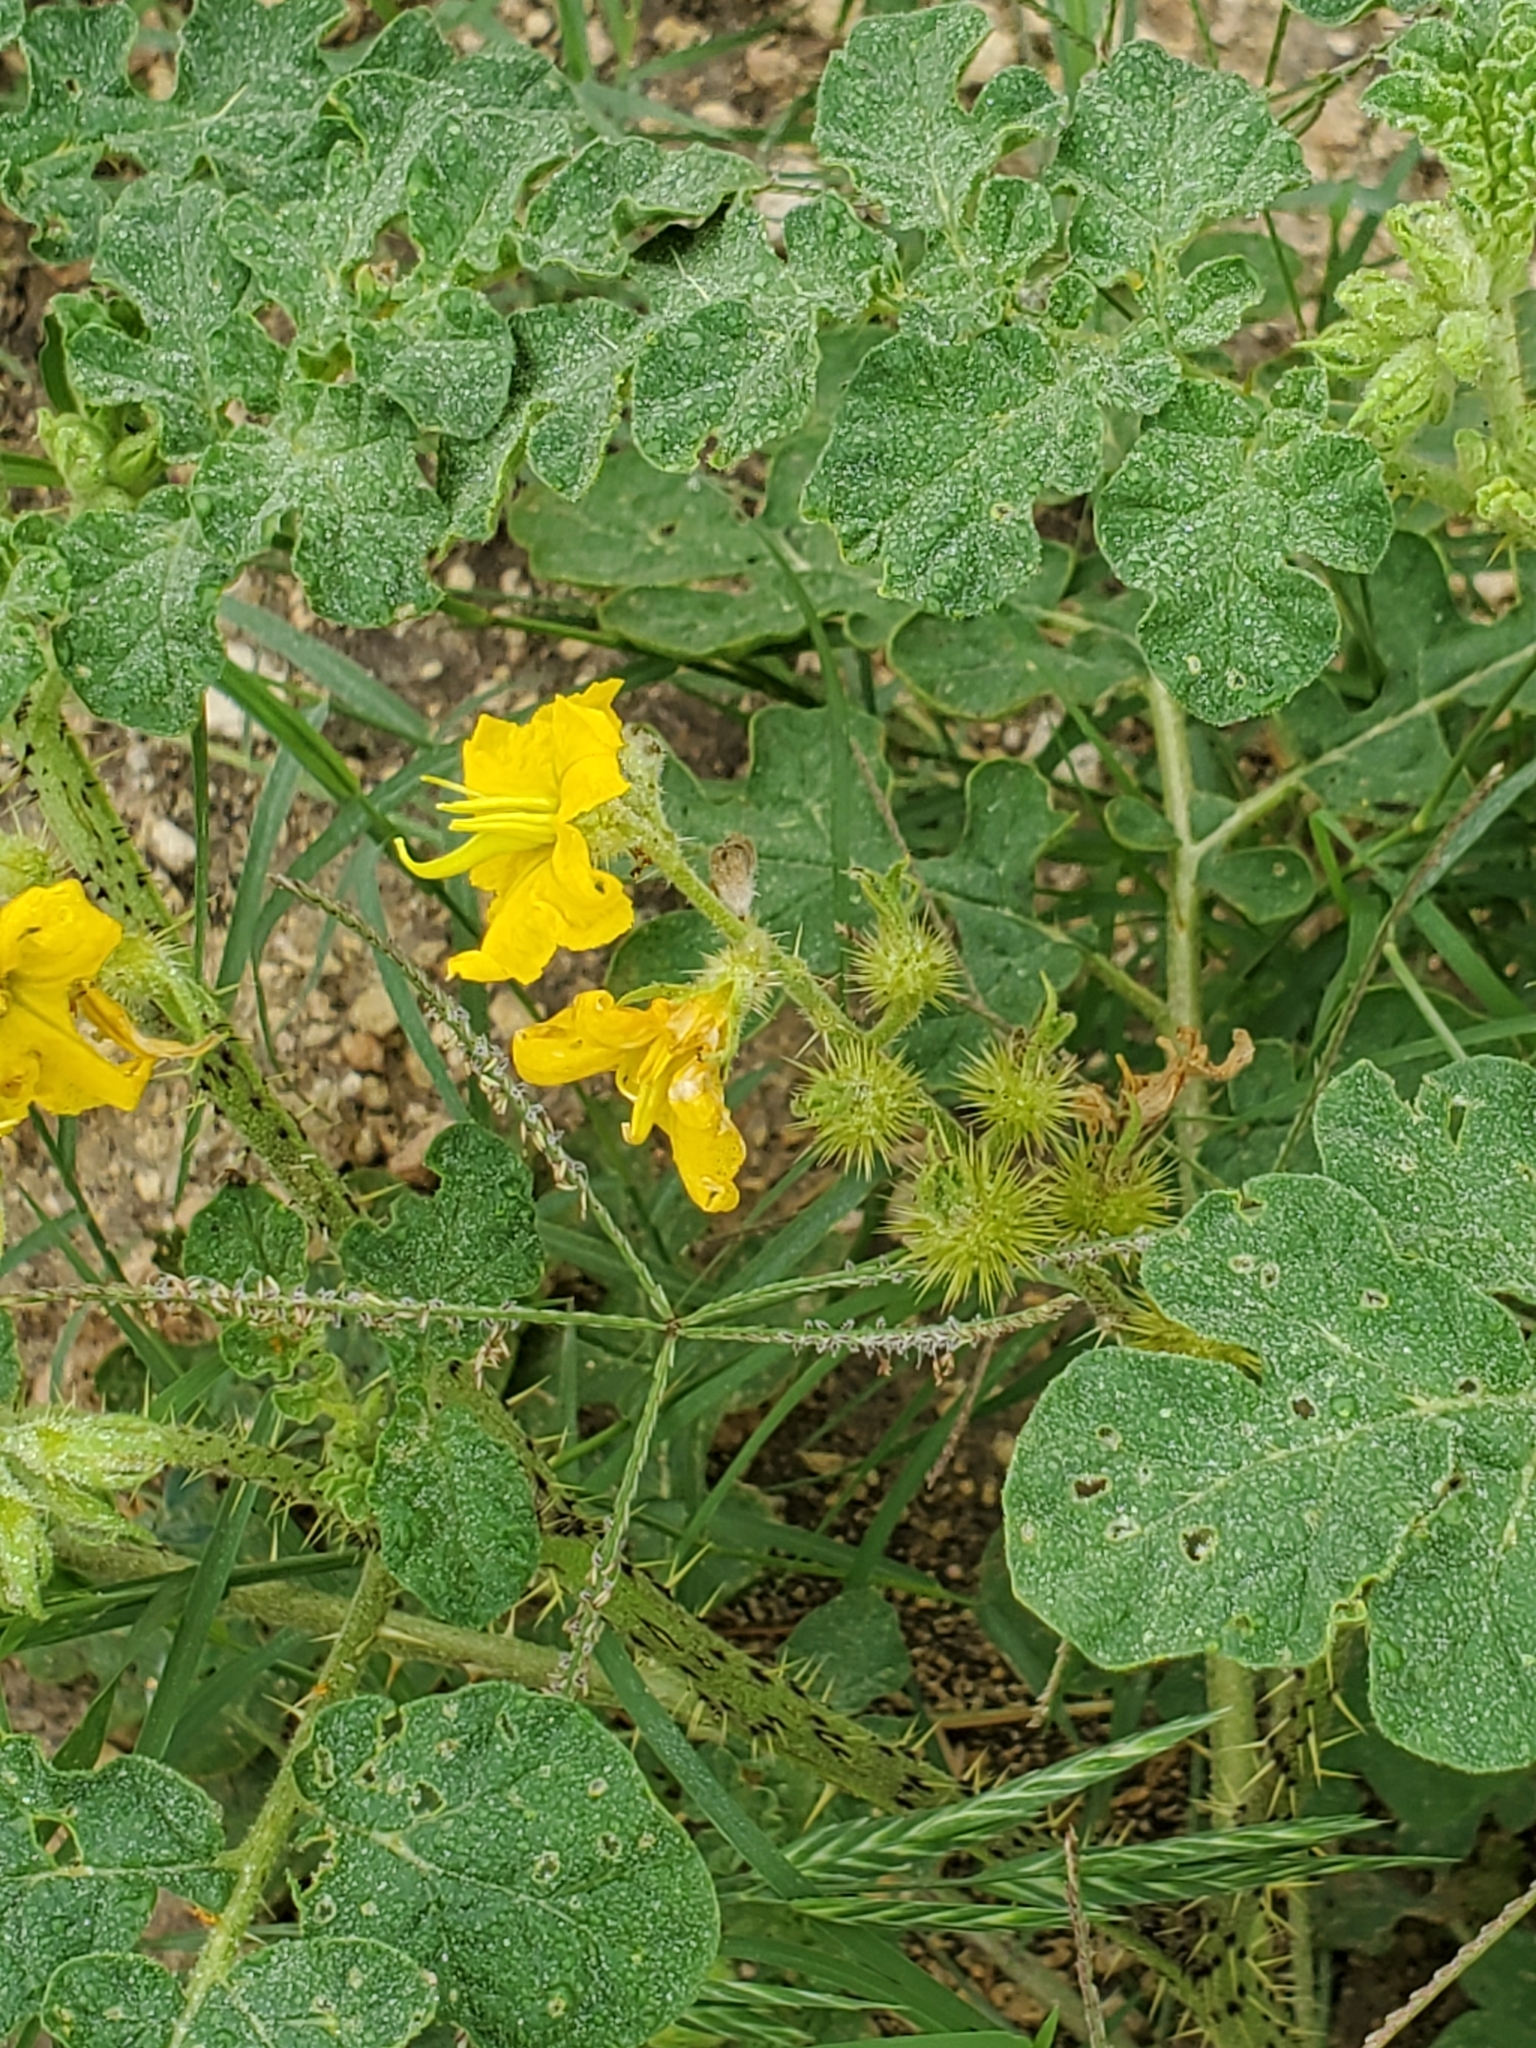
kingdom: Plantae
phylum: Tracheophyta
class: Magnoliopsida
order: Solanales
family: Solanaceae
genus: Solanum
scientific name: Solanum angustifolium
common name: Buffalobur nightshade
